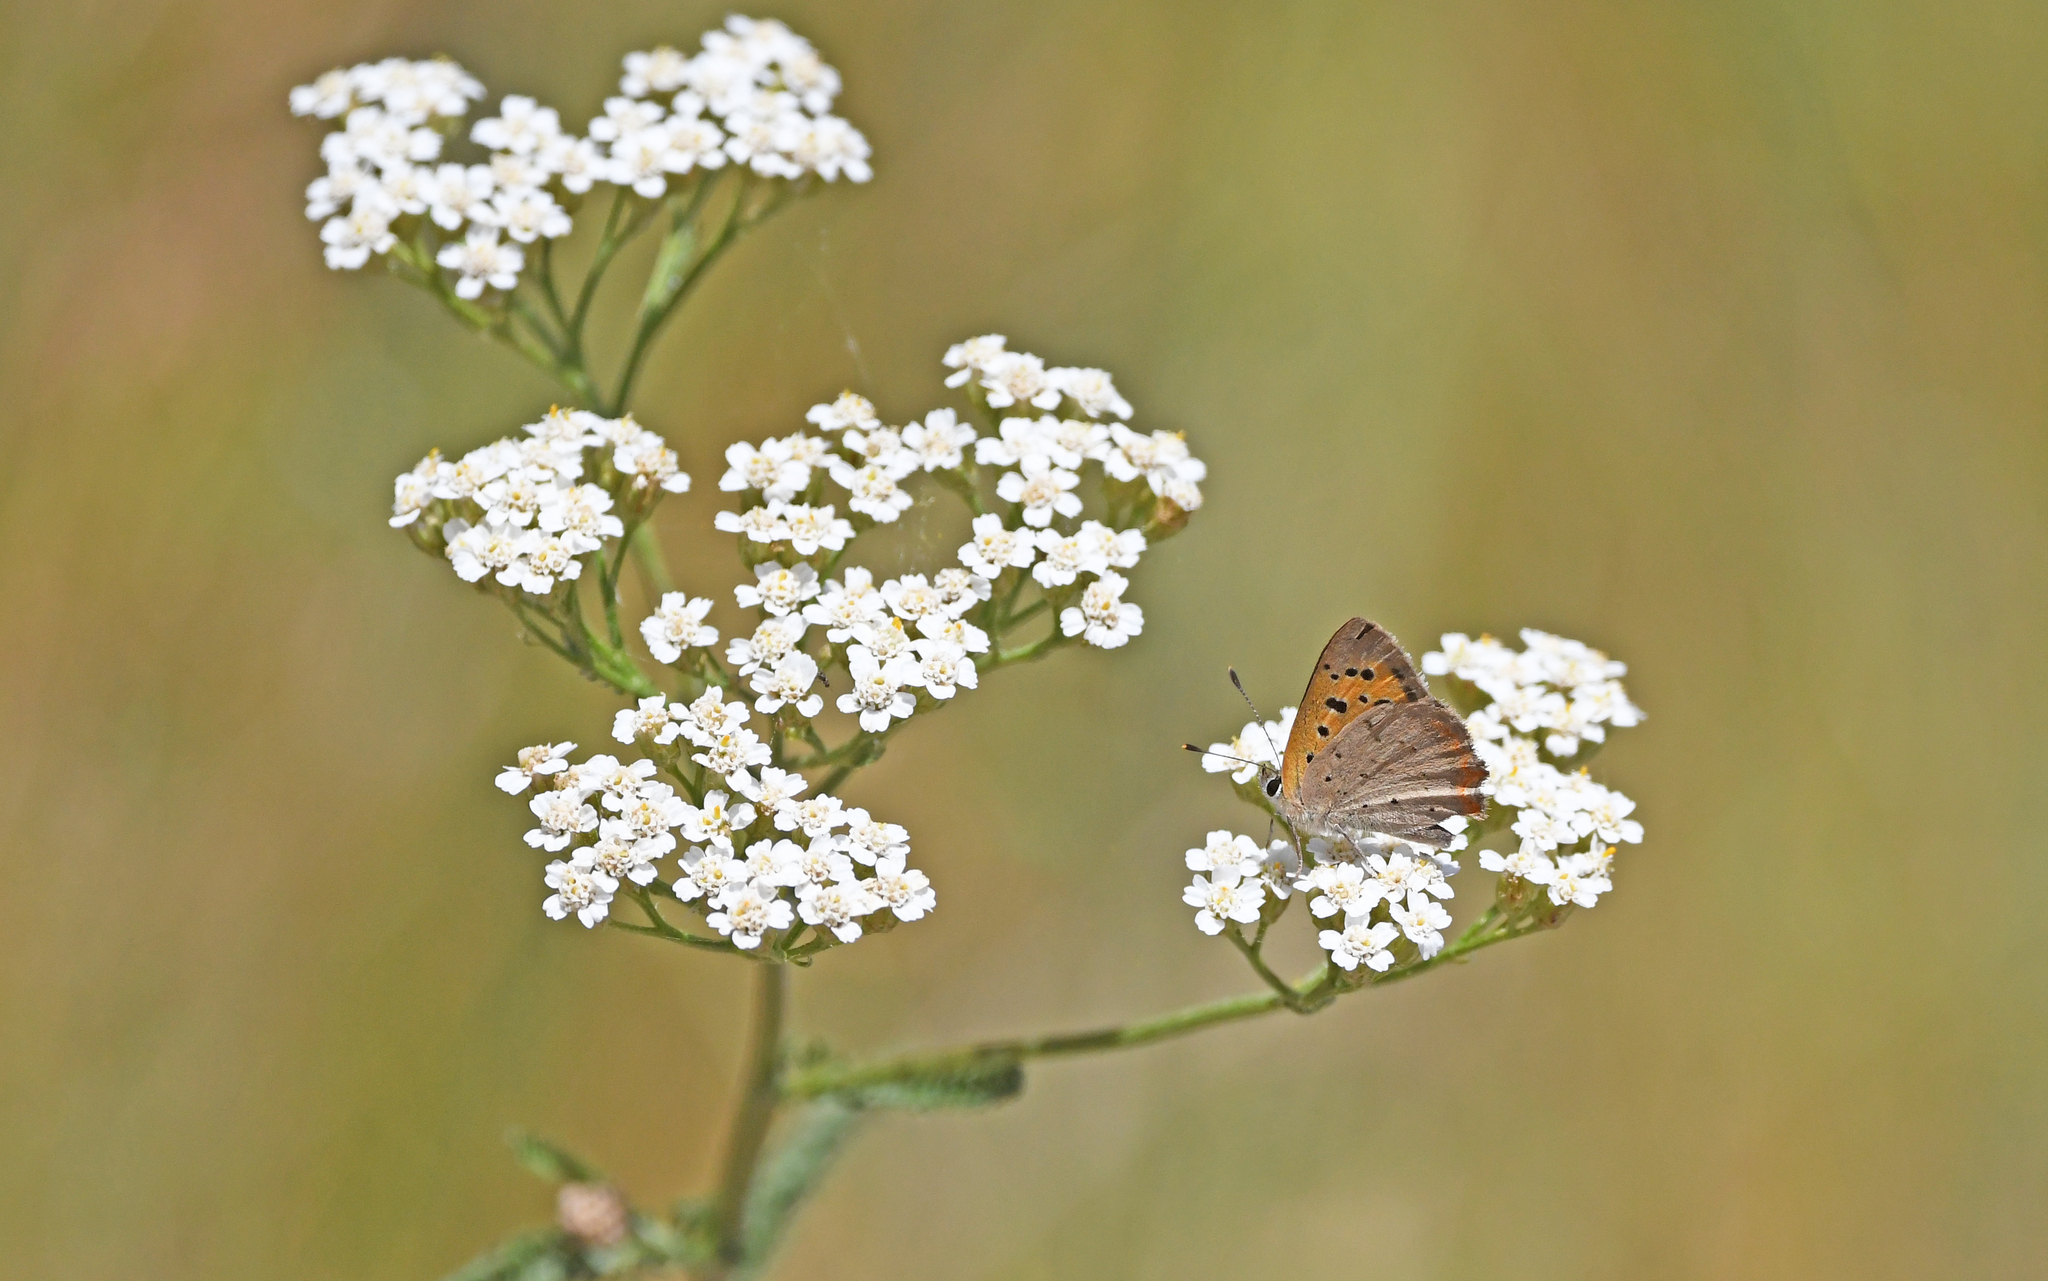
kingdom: Animalia
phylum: Arthropoda
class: Insecta
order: Lepidoptera
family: Lycaenidae
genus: Lycaena
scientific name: Lycaena phlaeas
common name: Small copper
